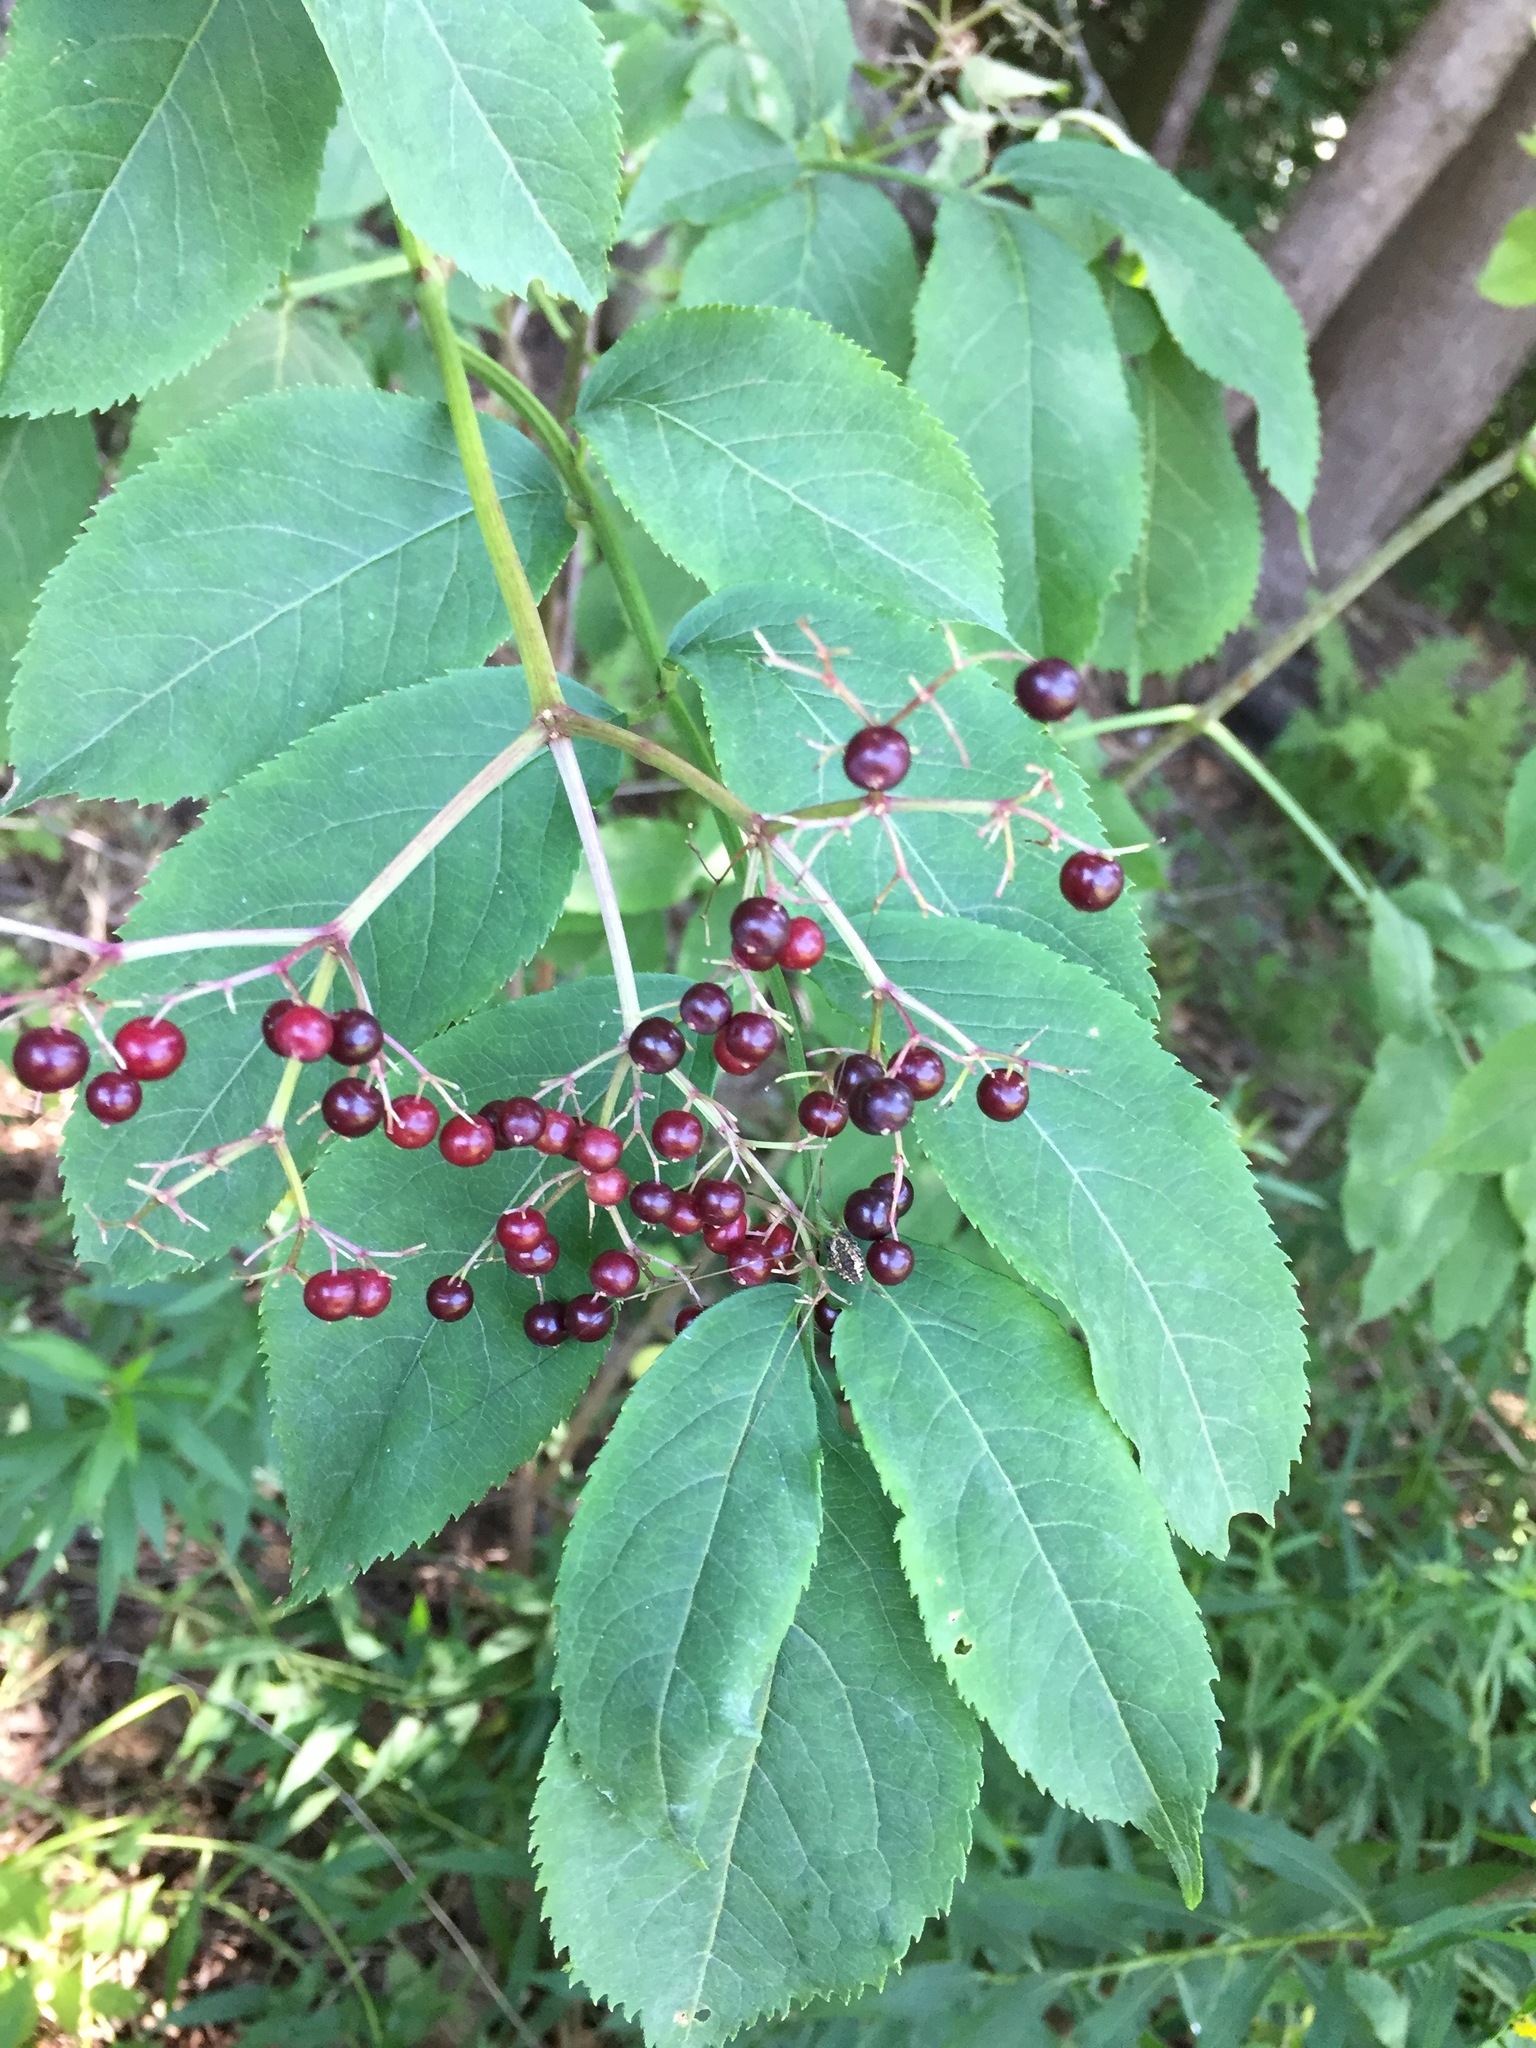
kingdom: Plantae
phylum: Tracheophyta
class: Magnoliopsida
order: Dipsacales
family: Viburnaceae
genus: Sambucus
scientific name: Sambucus canadensis
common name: American elder
